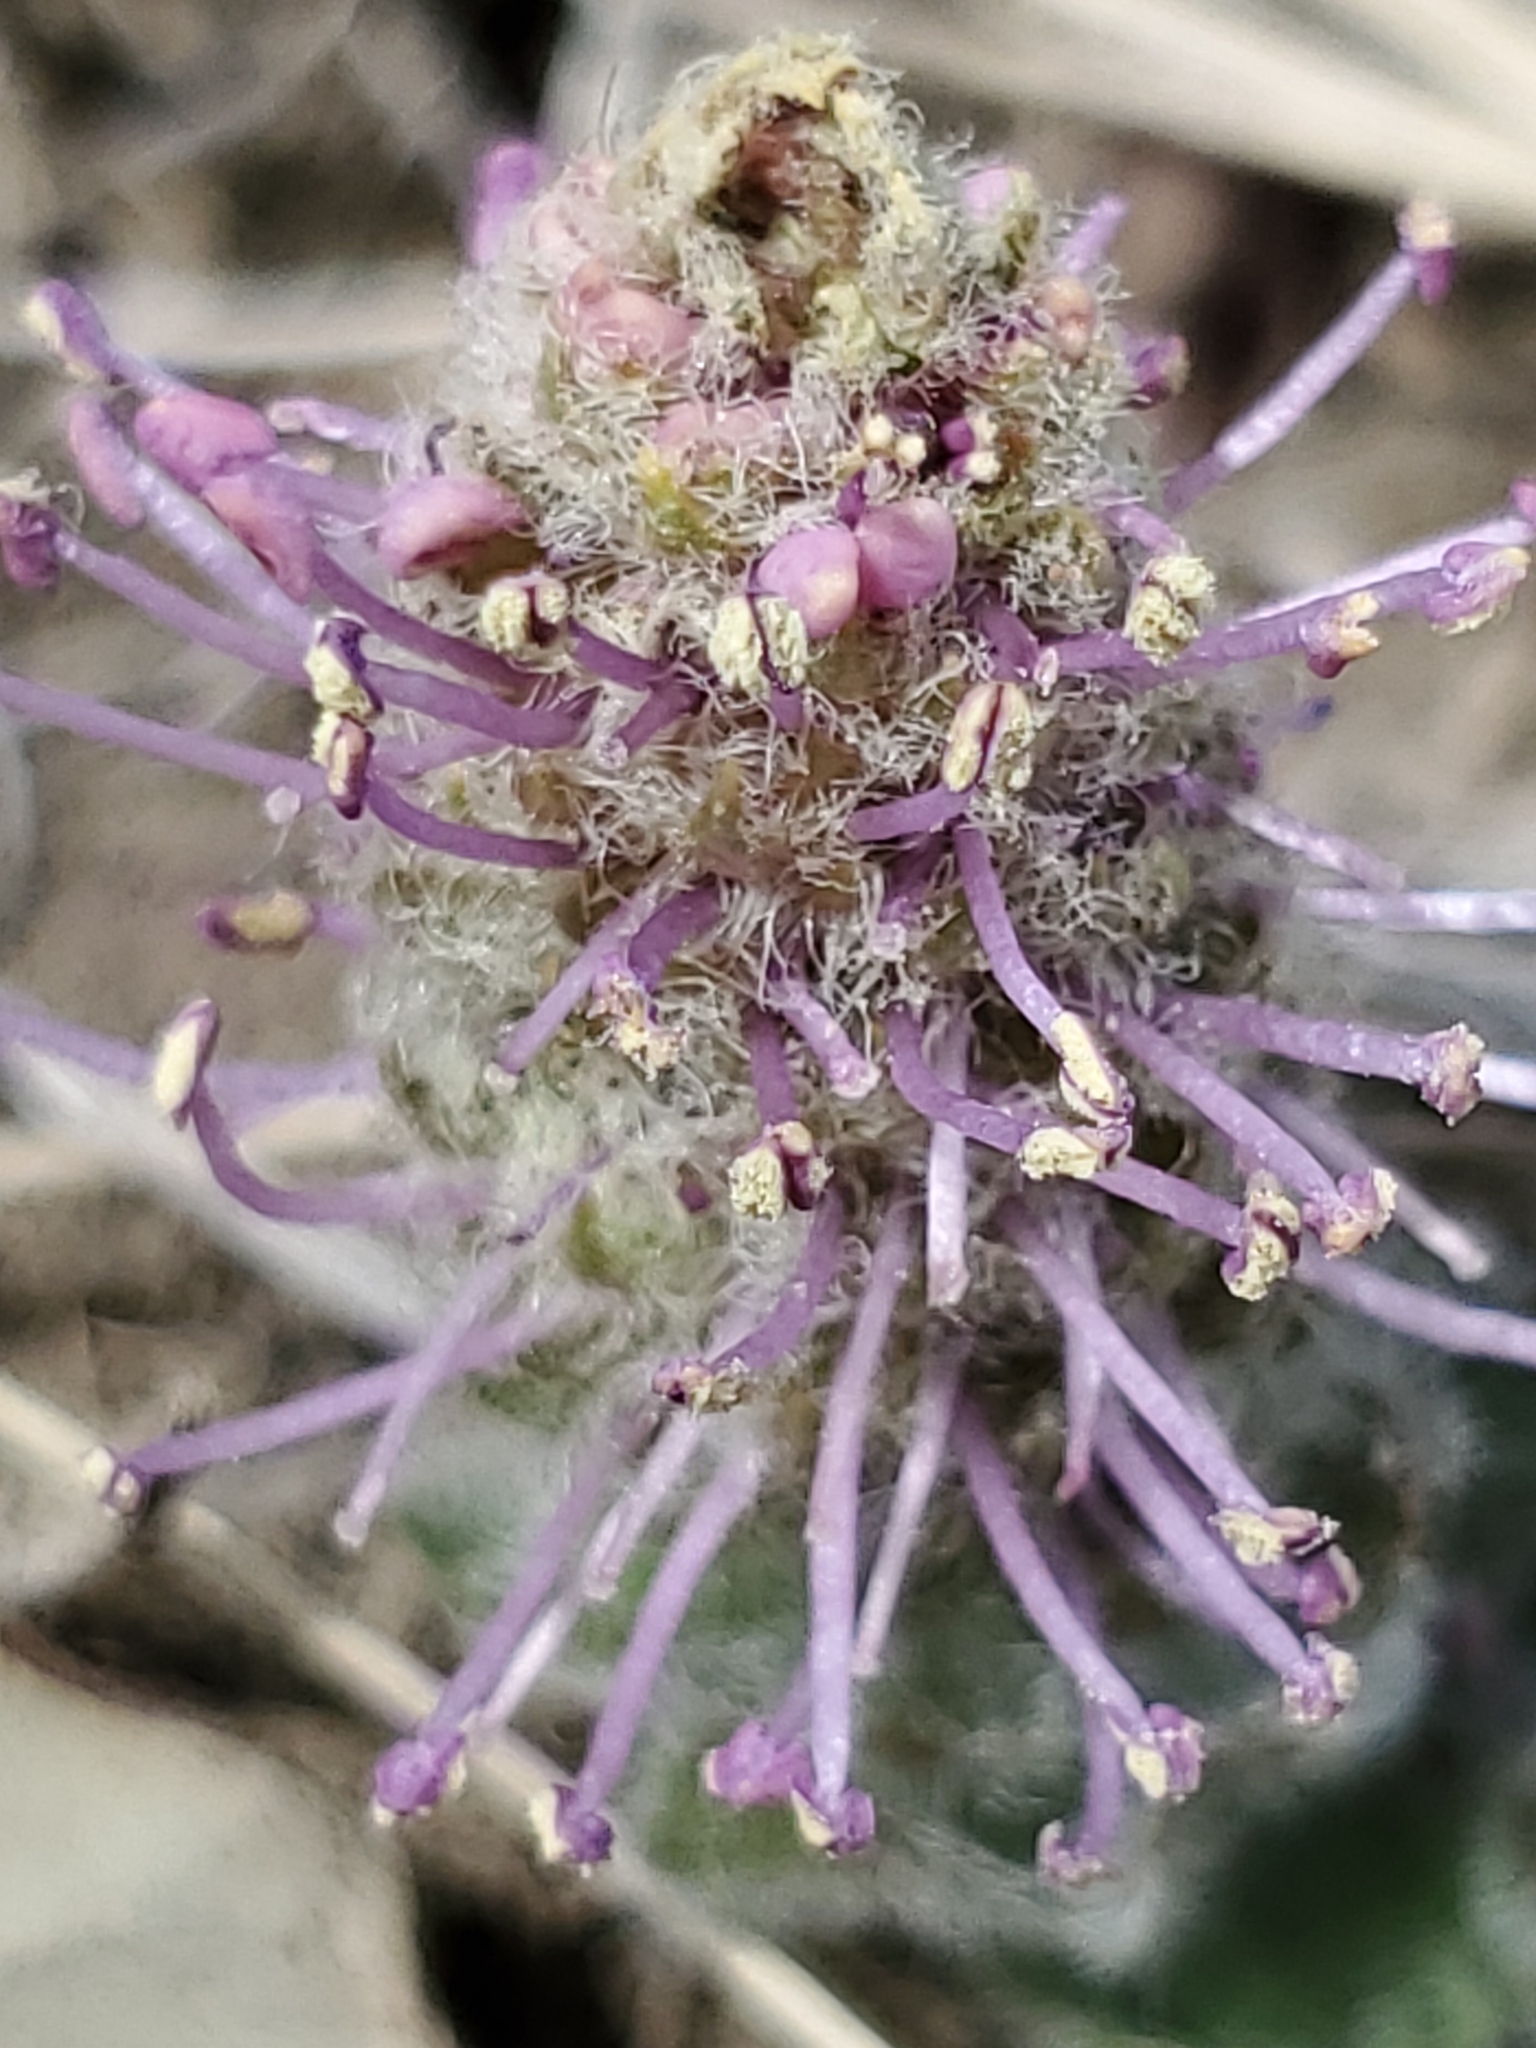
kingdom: Plantae
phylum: Tracheophyta
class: Magnoliopsida
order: Lamiales
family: Plantaginaceae
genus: Synthyris
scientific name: Synthyris wyomingensis
